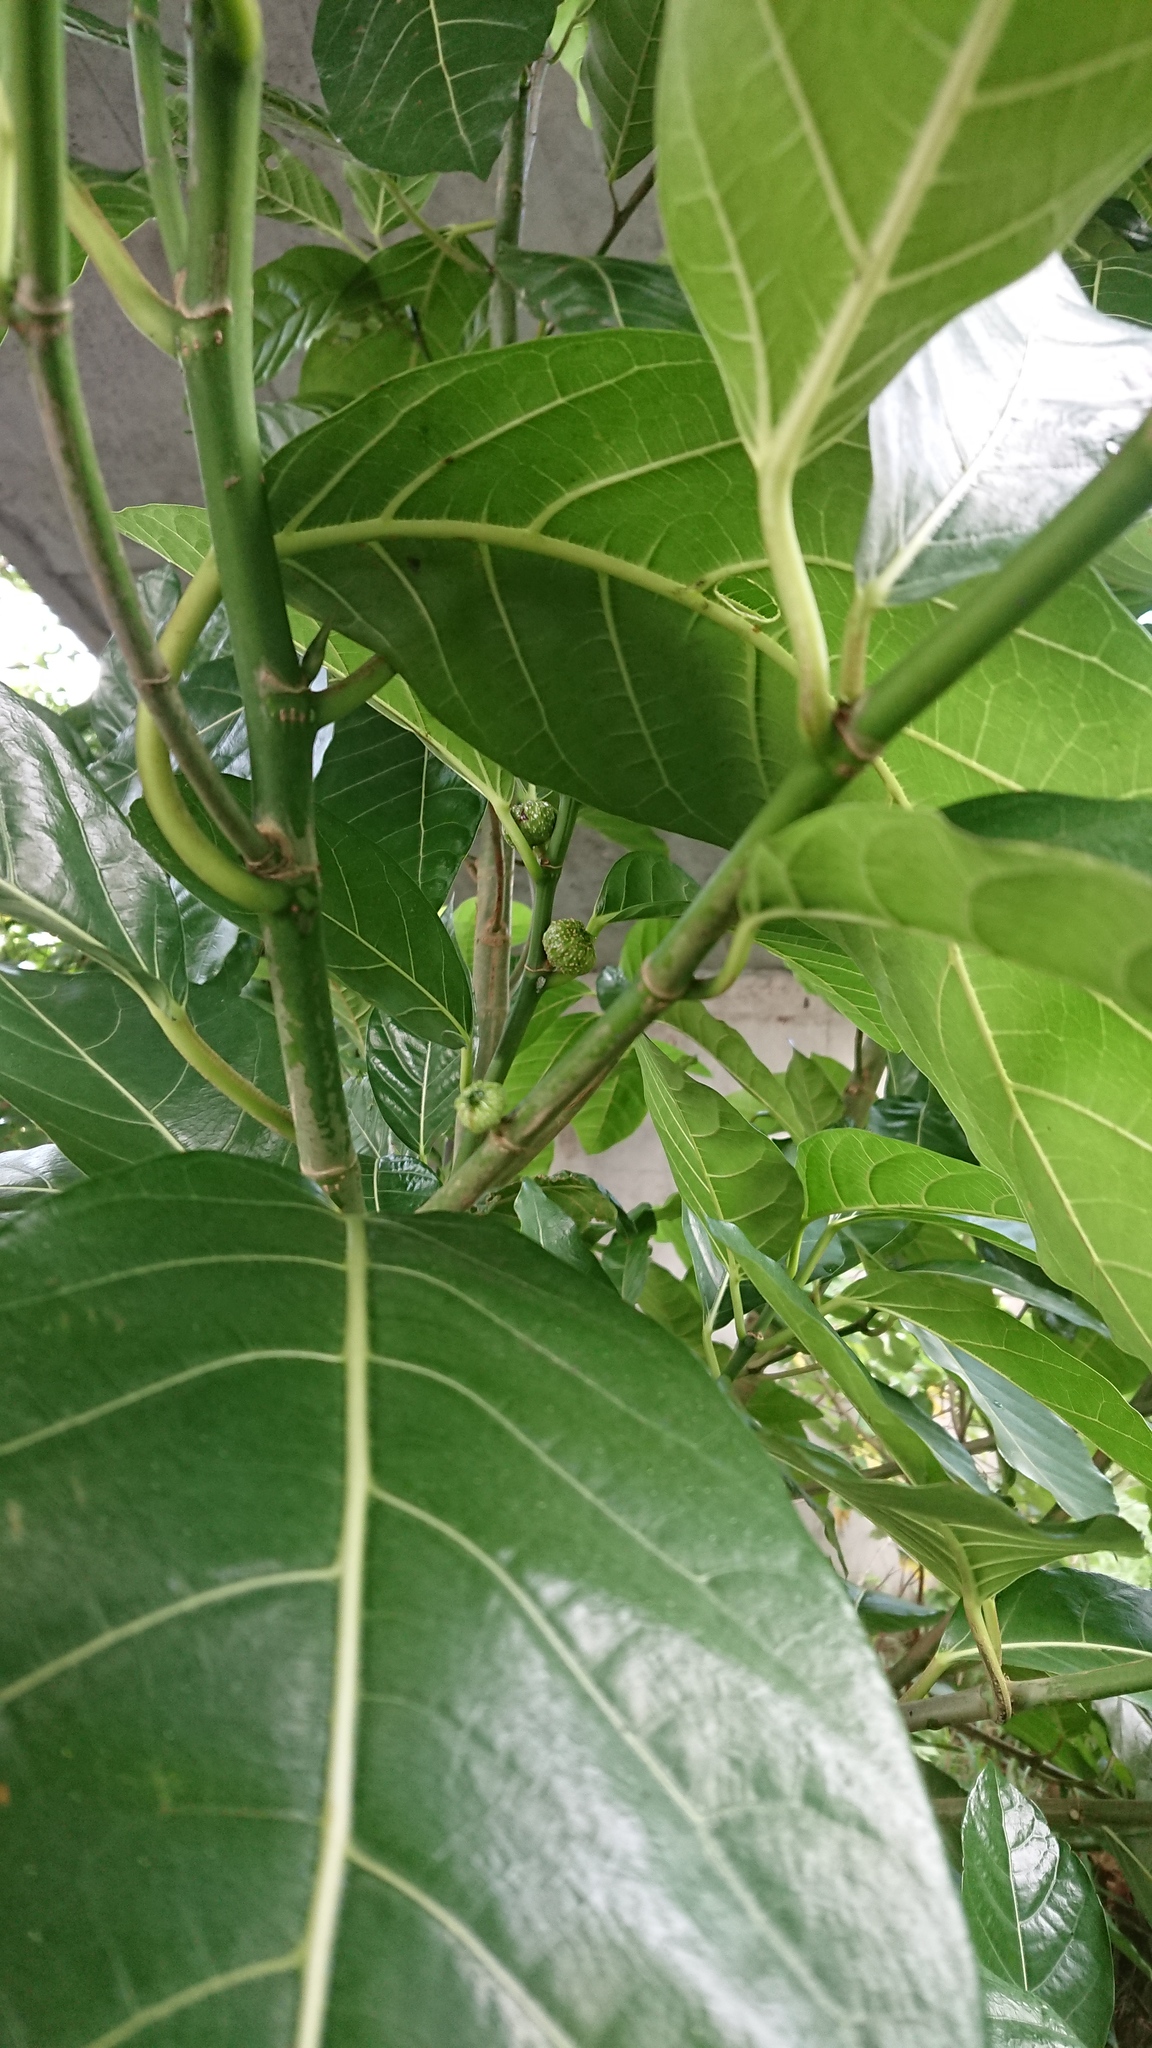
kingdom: Plantae
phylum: Tracheophyta
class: Magnoliopsida
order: Rosales
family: Moraceae
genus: Ficus
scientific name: Ficus septica
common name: Septic fig
